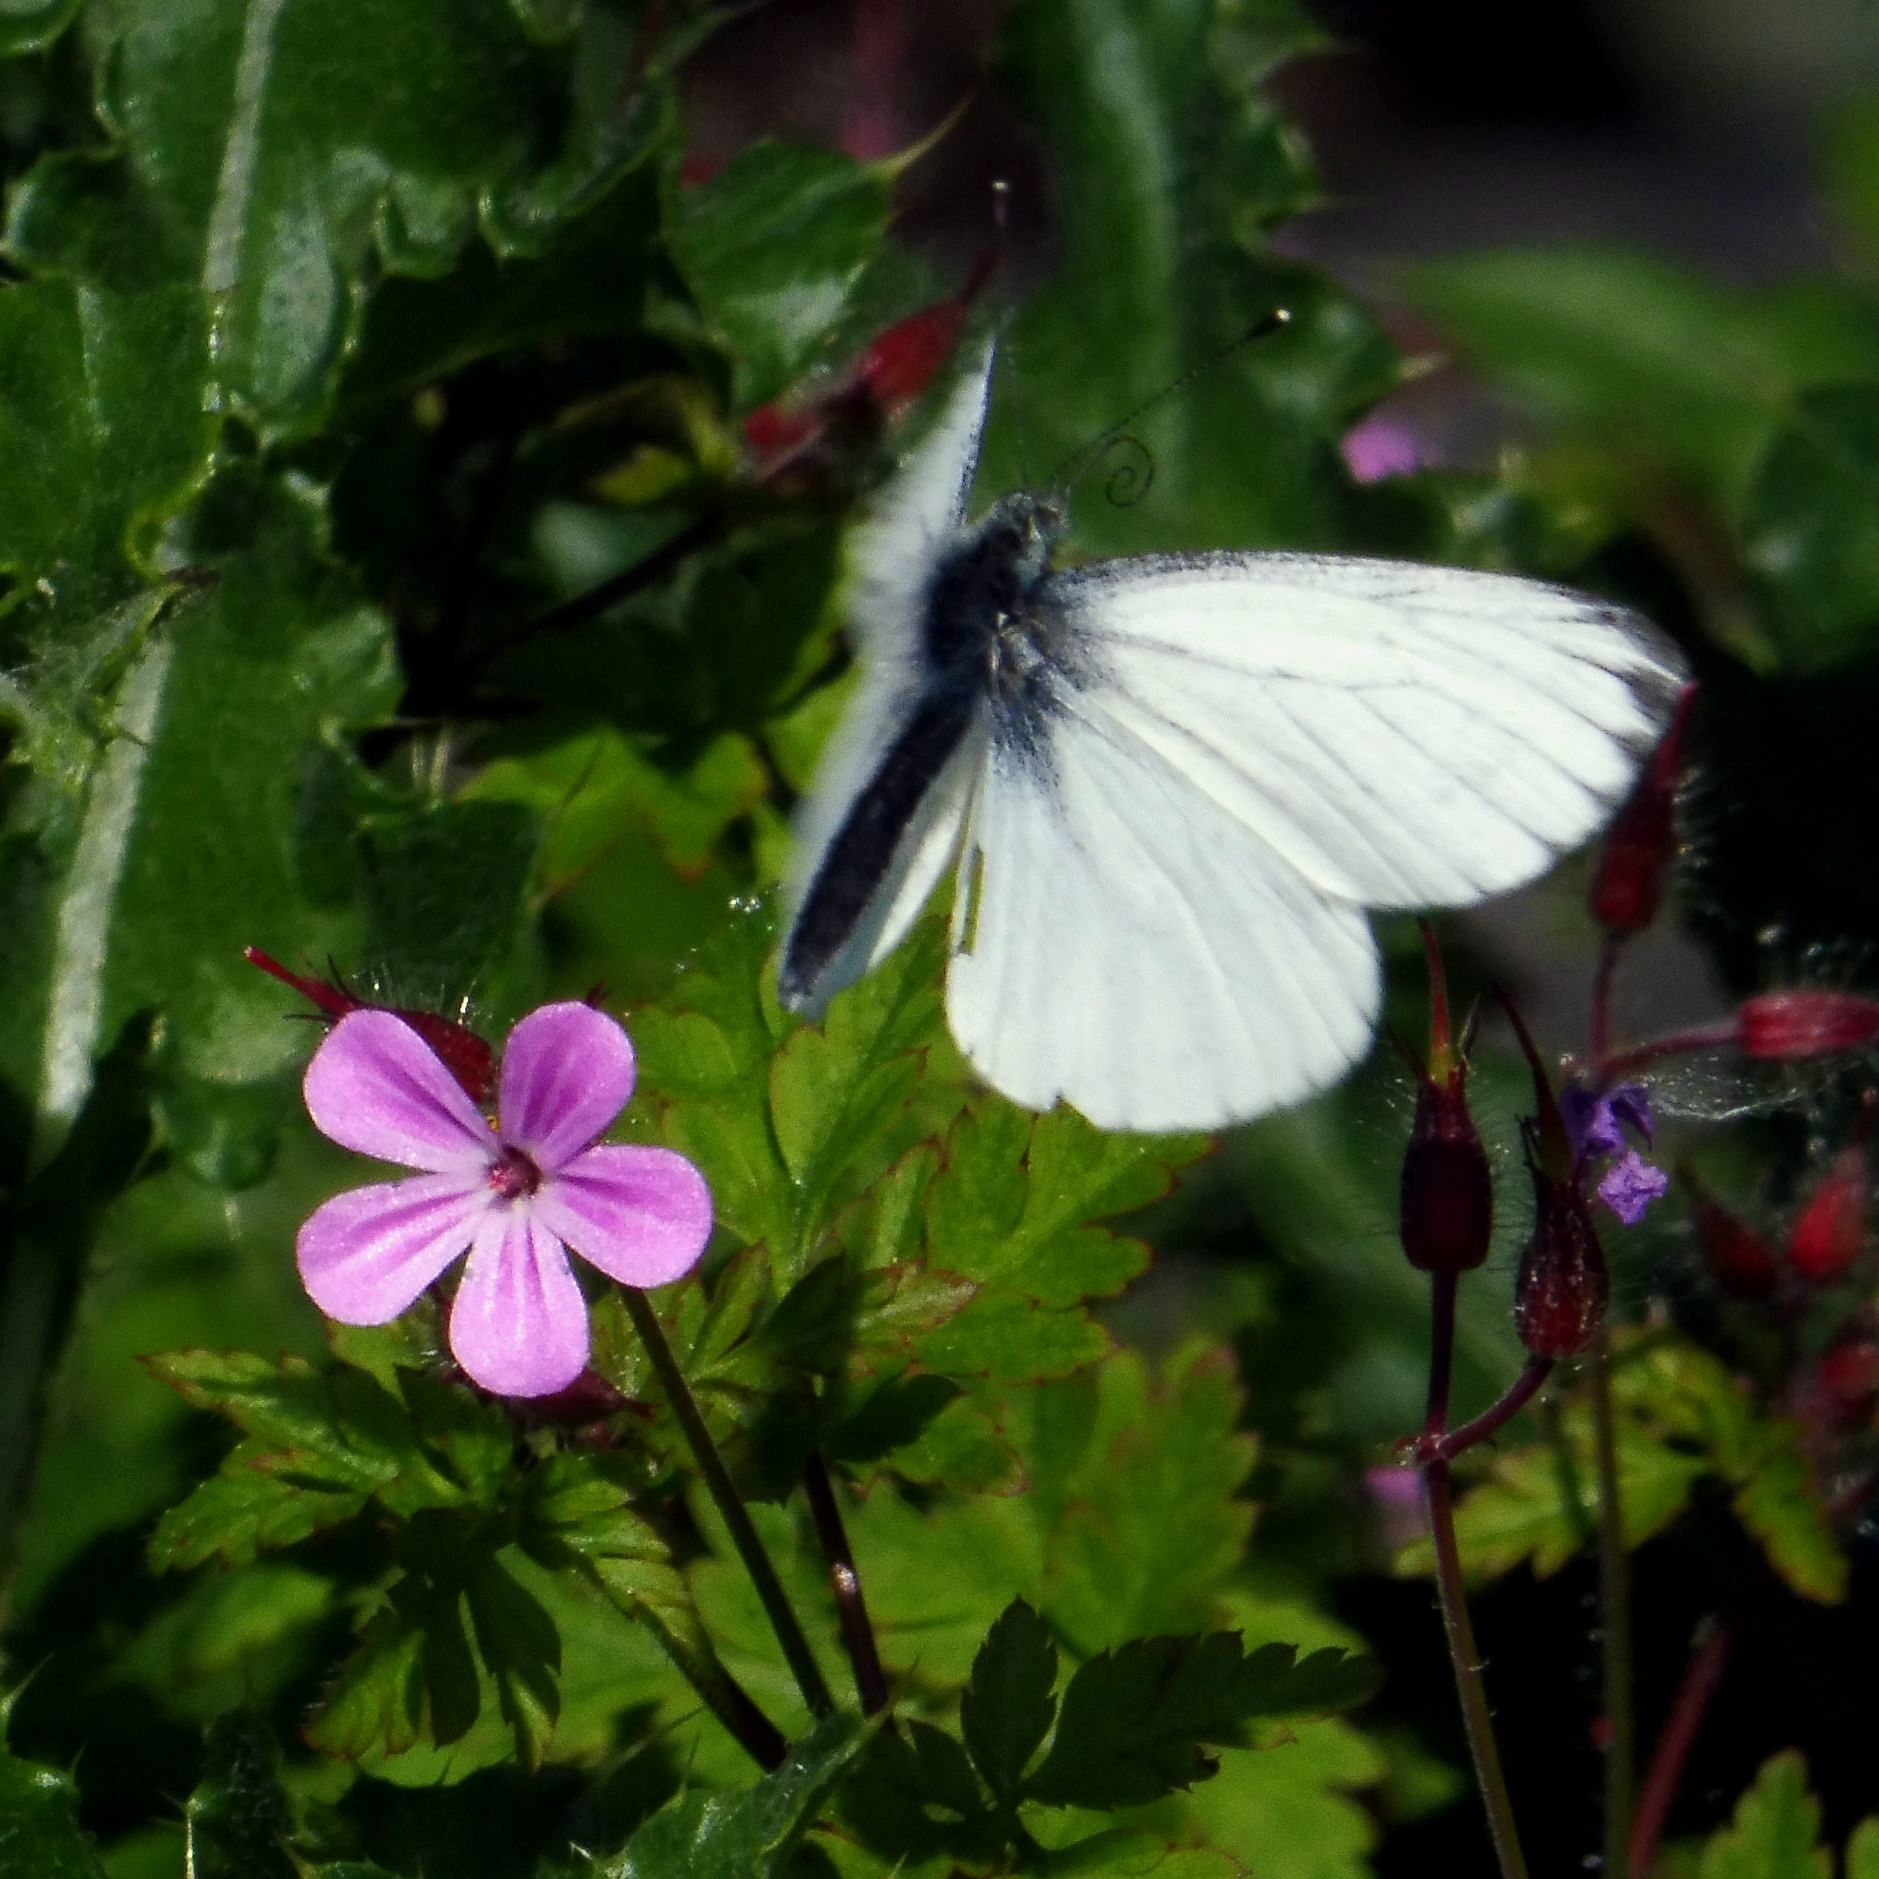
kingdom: Animalia
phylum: Arthropoda
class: Insecta
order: Lepidoptera
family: Pieridae
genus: Pieris
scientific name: Pieris napi
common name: Green-veined white
